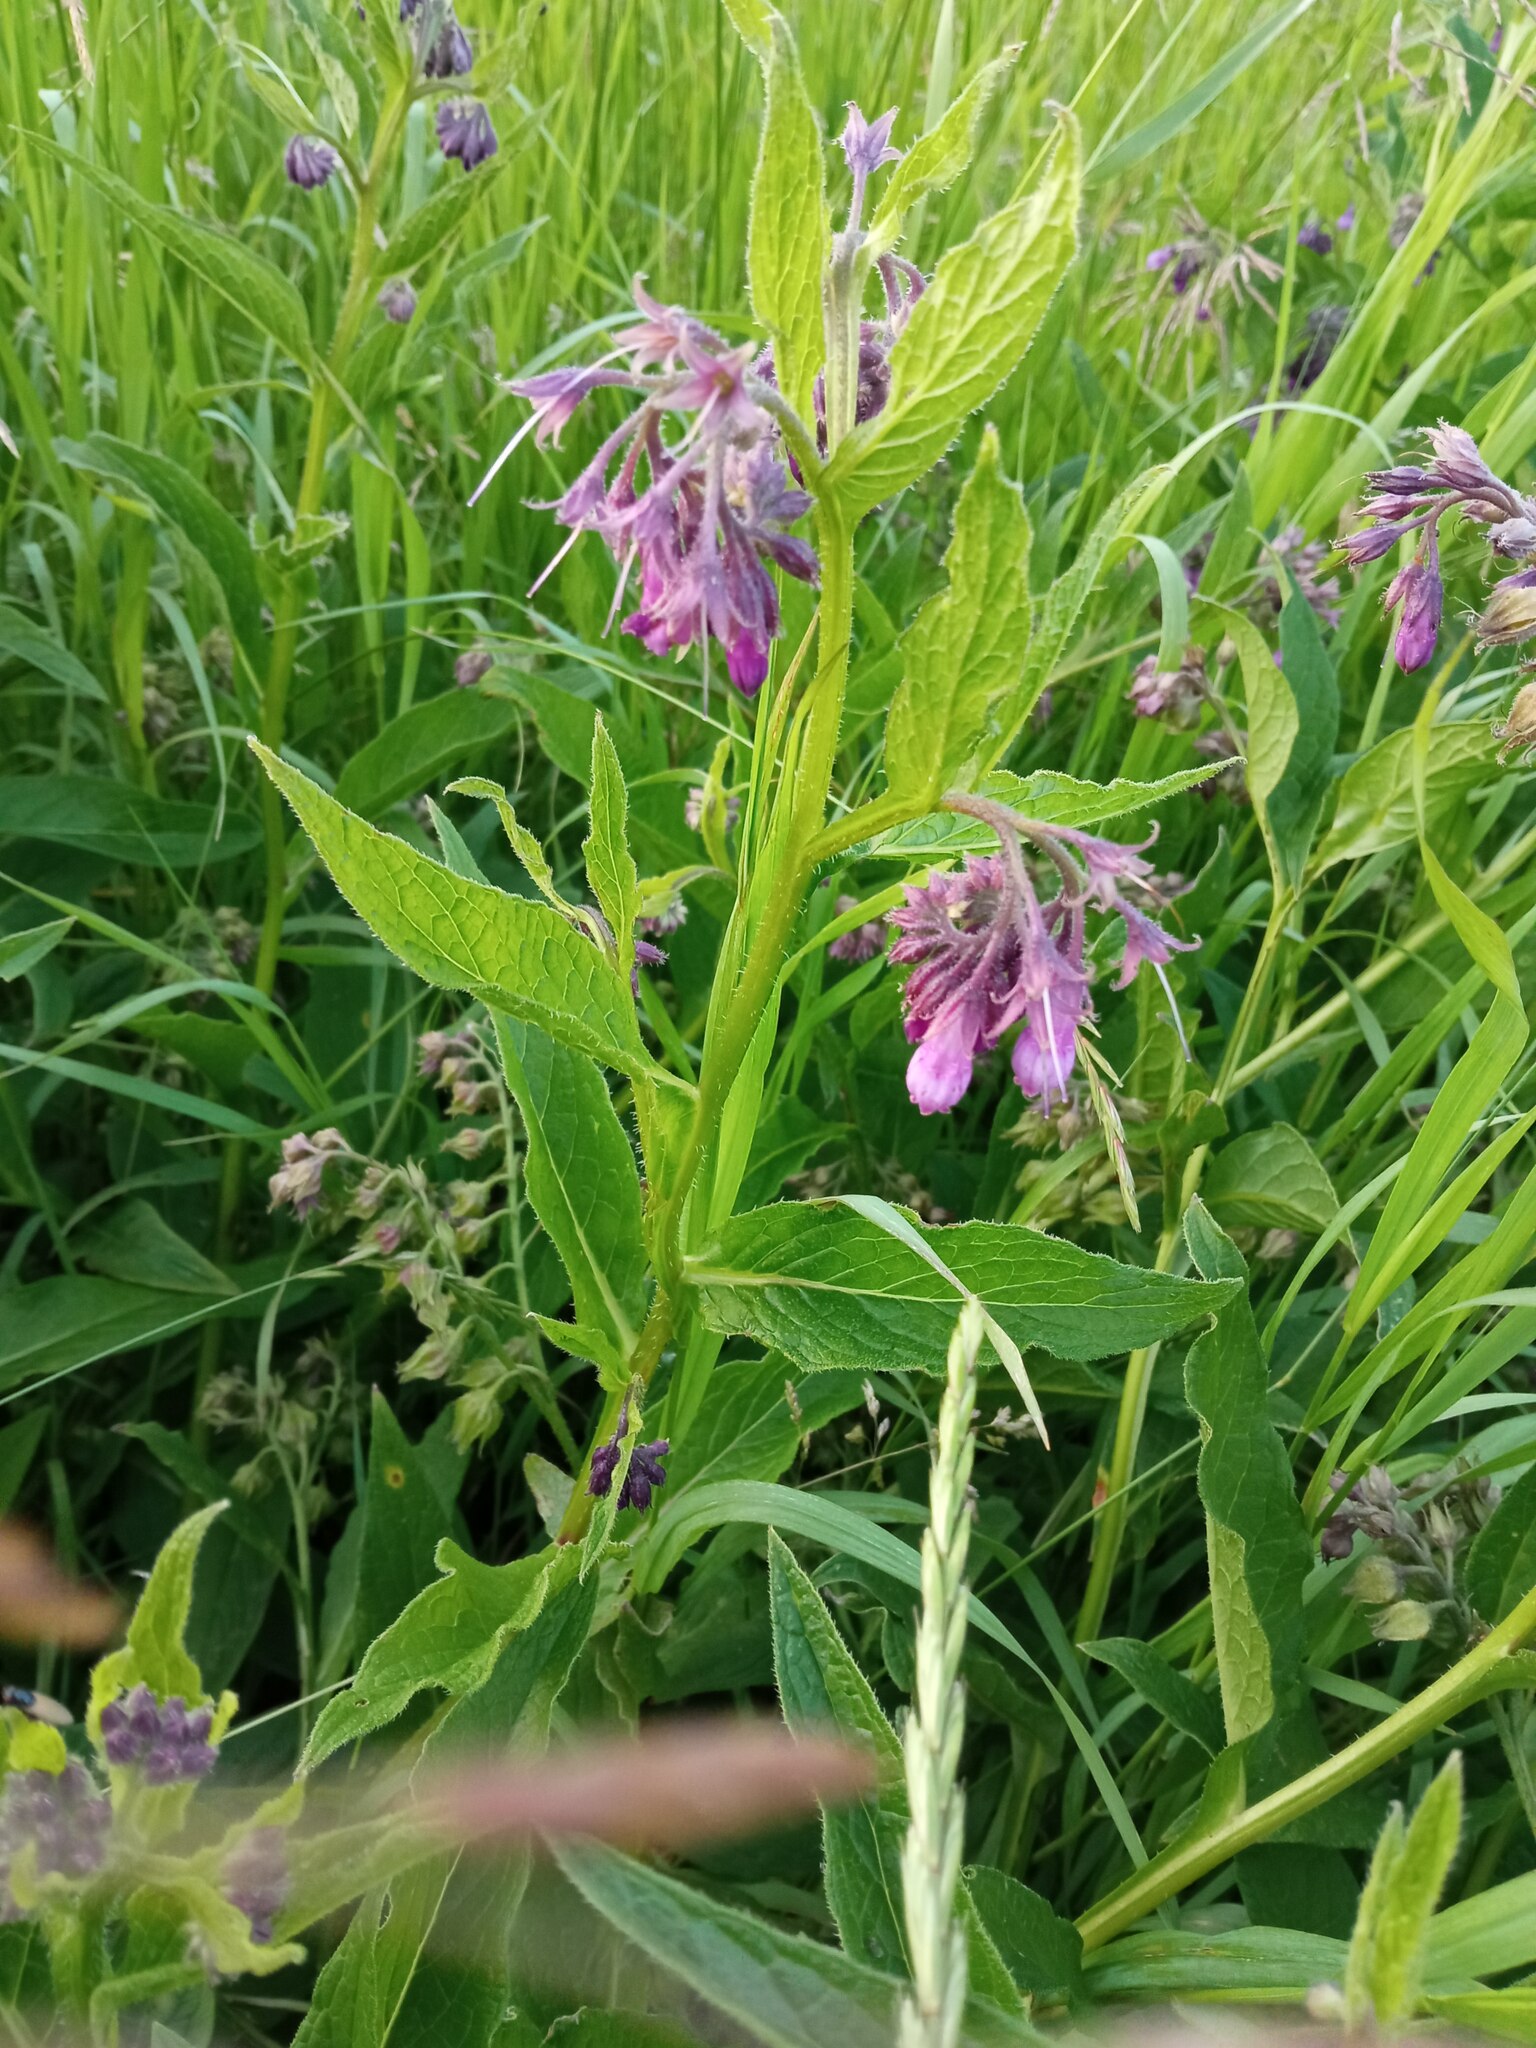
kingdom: Plantae
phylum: Tracheophyta
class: Magnoliopsida
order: Boraginales
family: Boraginaceae
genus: Symphytum
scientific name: Symphytum officinale
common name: Common comfrey
